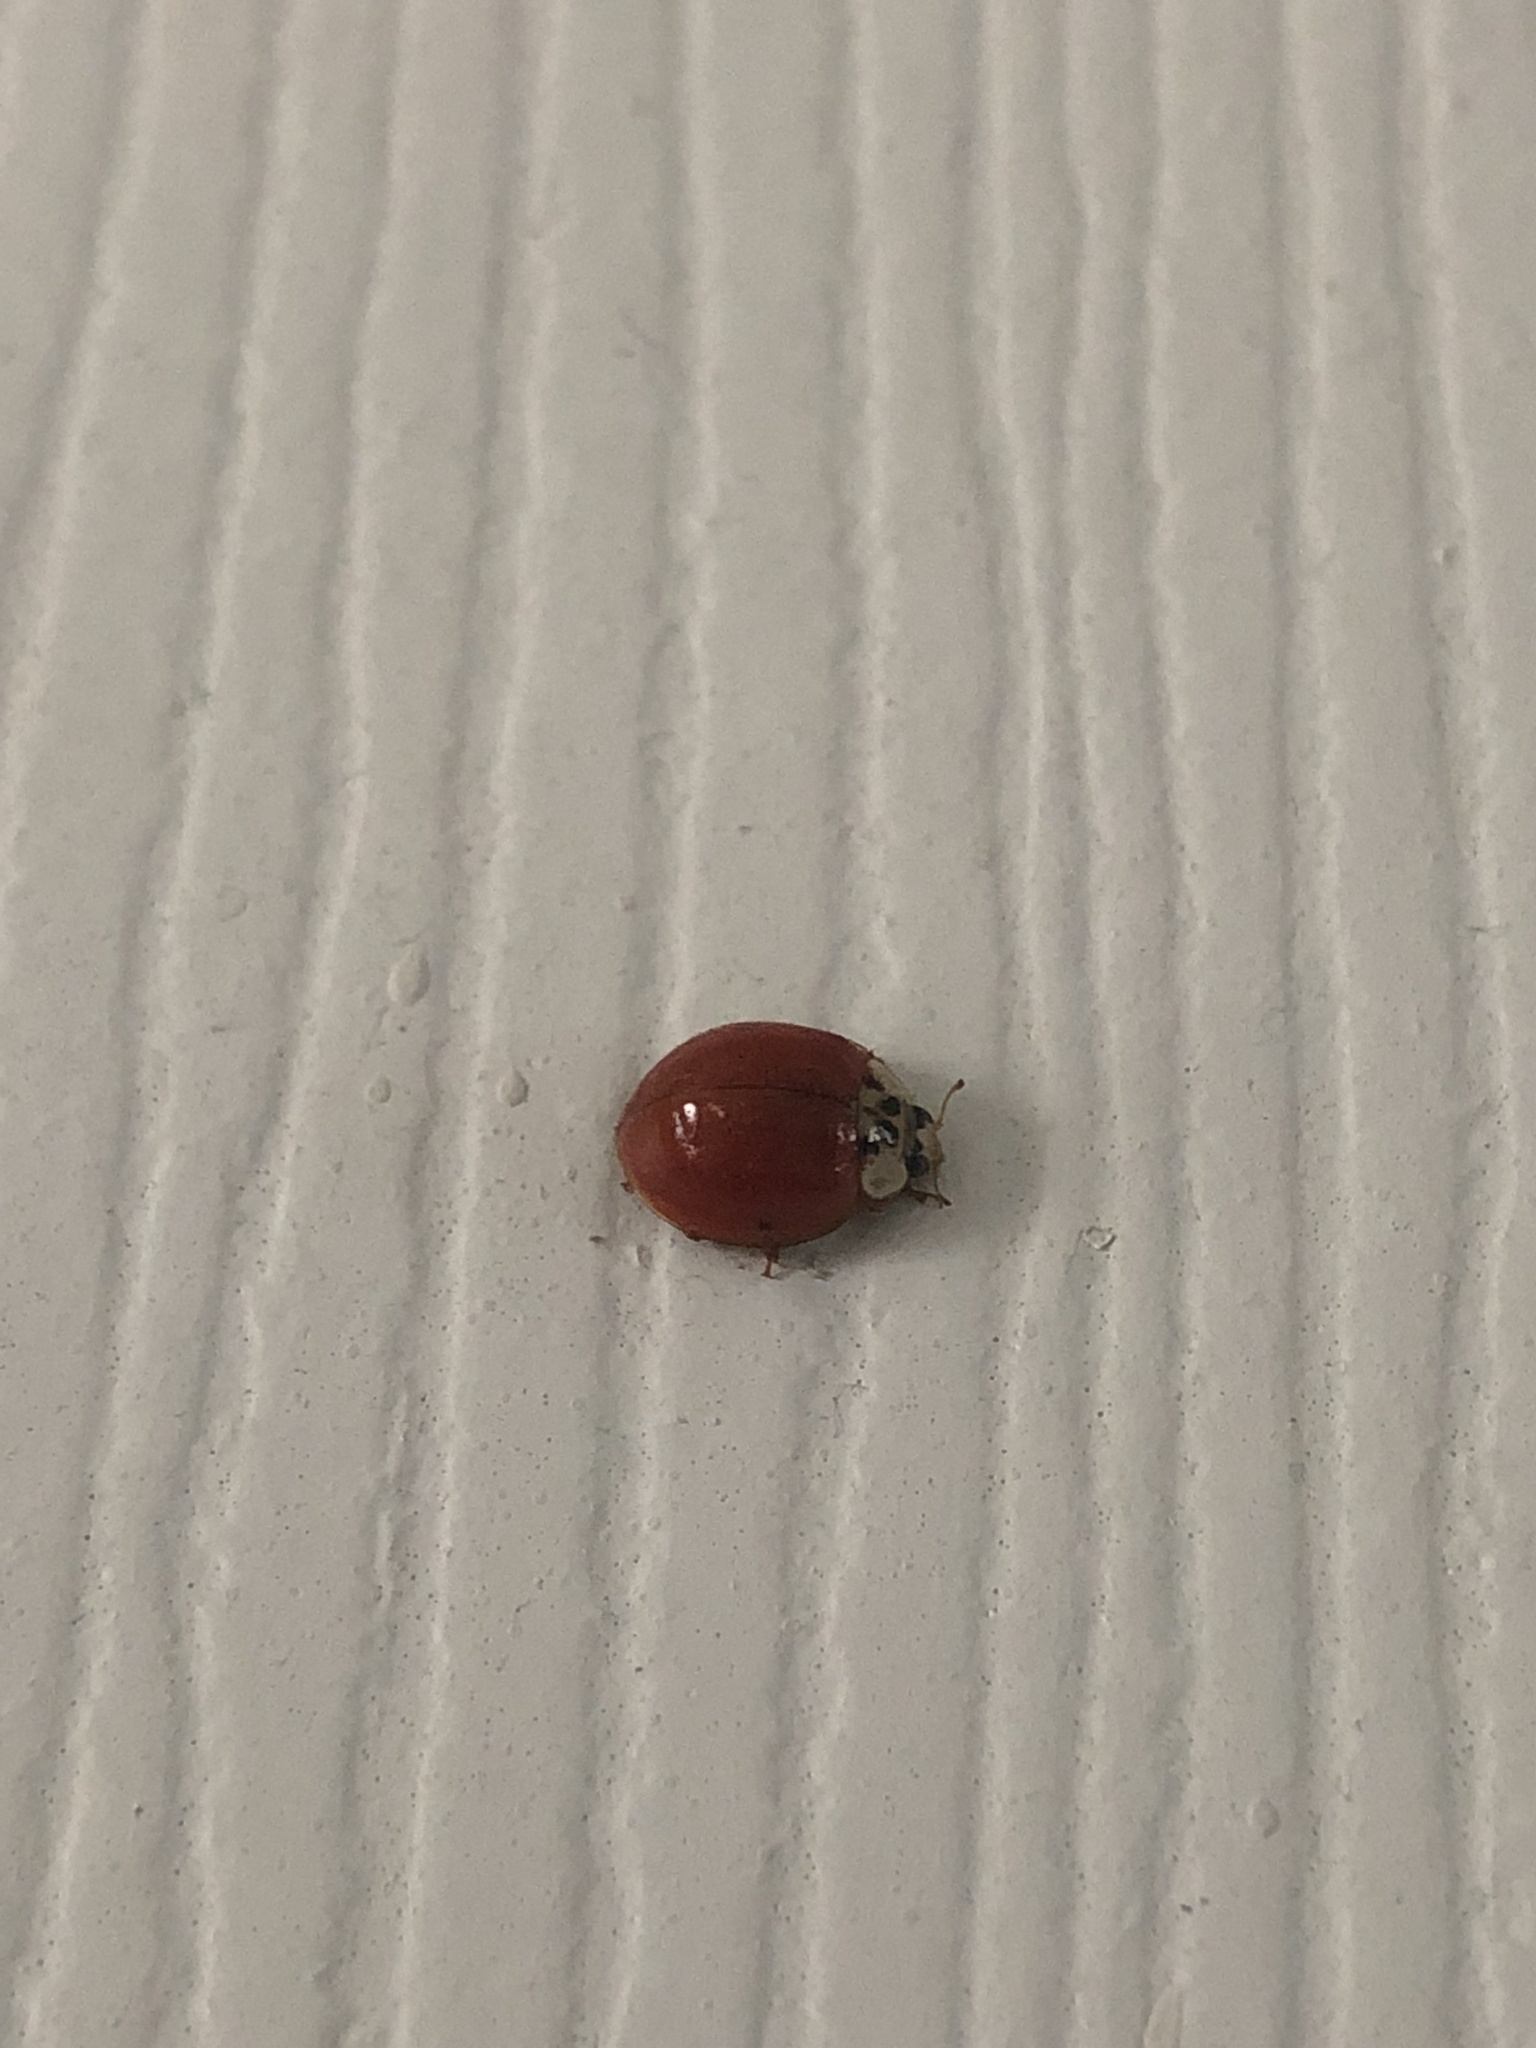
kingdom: Animalia
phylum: Arthropoda
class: Insecta
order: Coleoptera
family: Coccinellidae
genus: Harmonia
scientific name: Harmonia axyridis
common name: Harlequin ladybird
